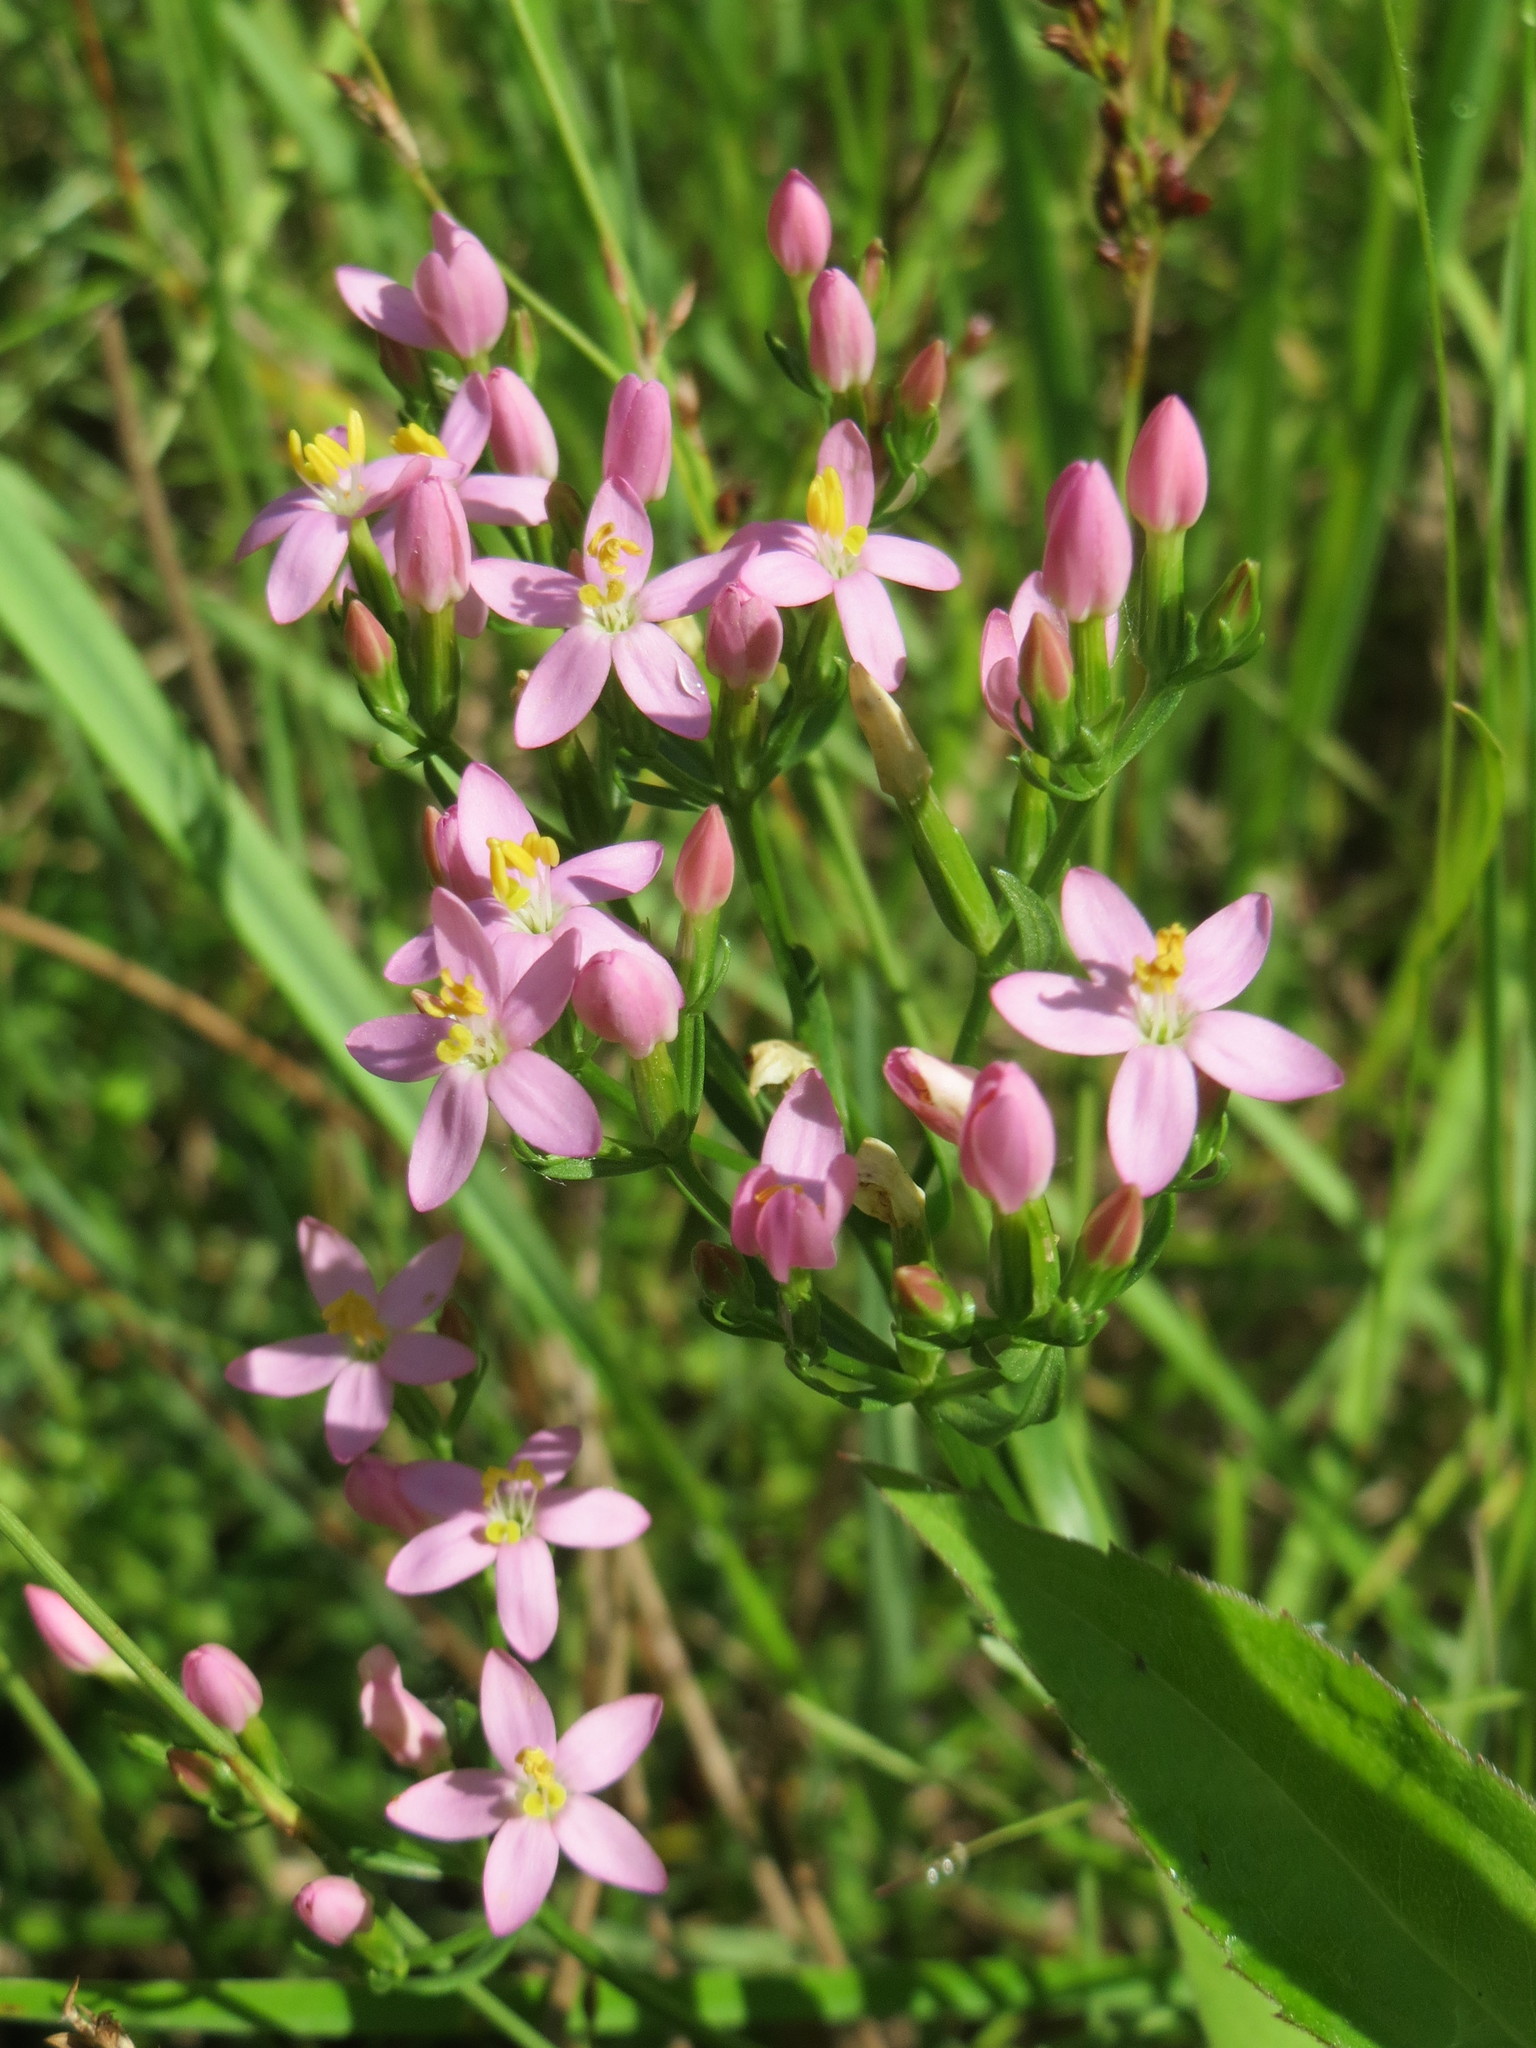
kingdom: Plantae
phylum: Tracheophyta
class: Magnoliopsida
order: Gentianales
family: Gentianaceae
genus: Centaurium
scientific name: Centaurium erythraea
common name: Common centaury
